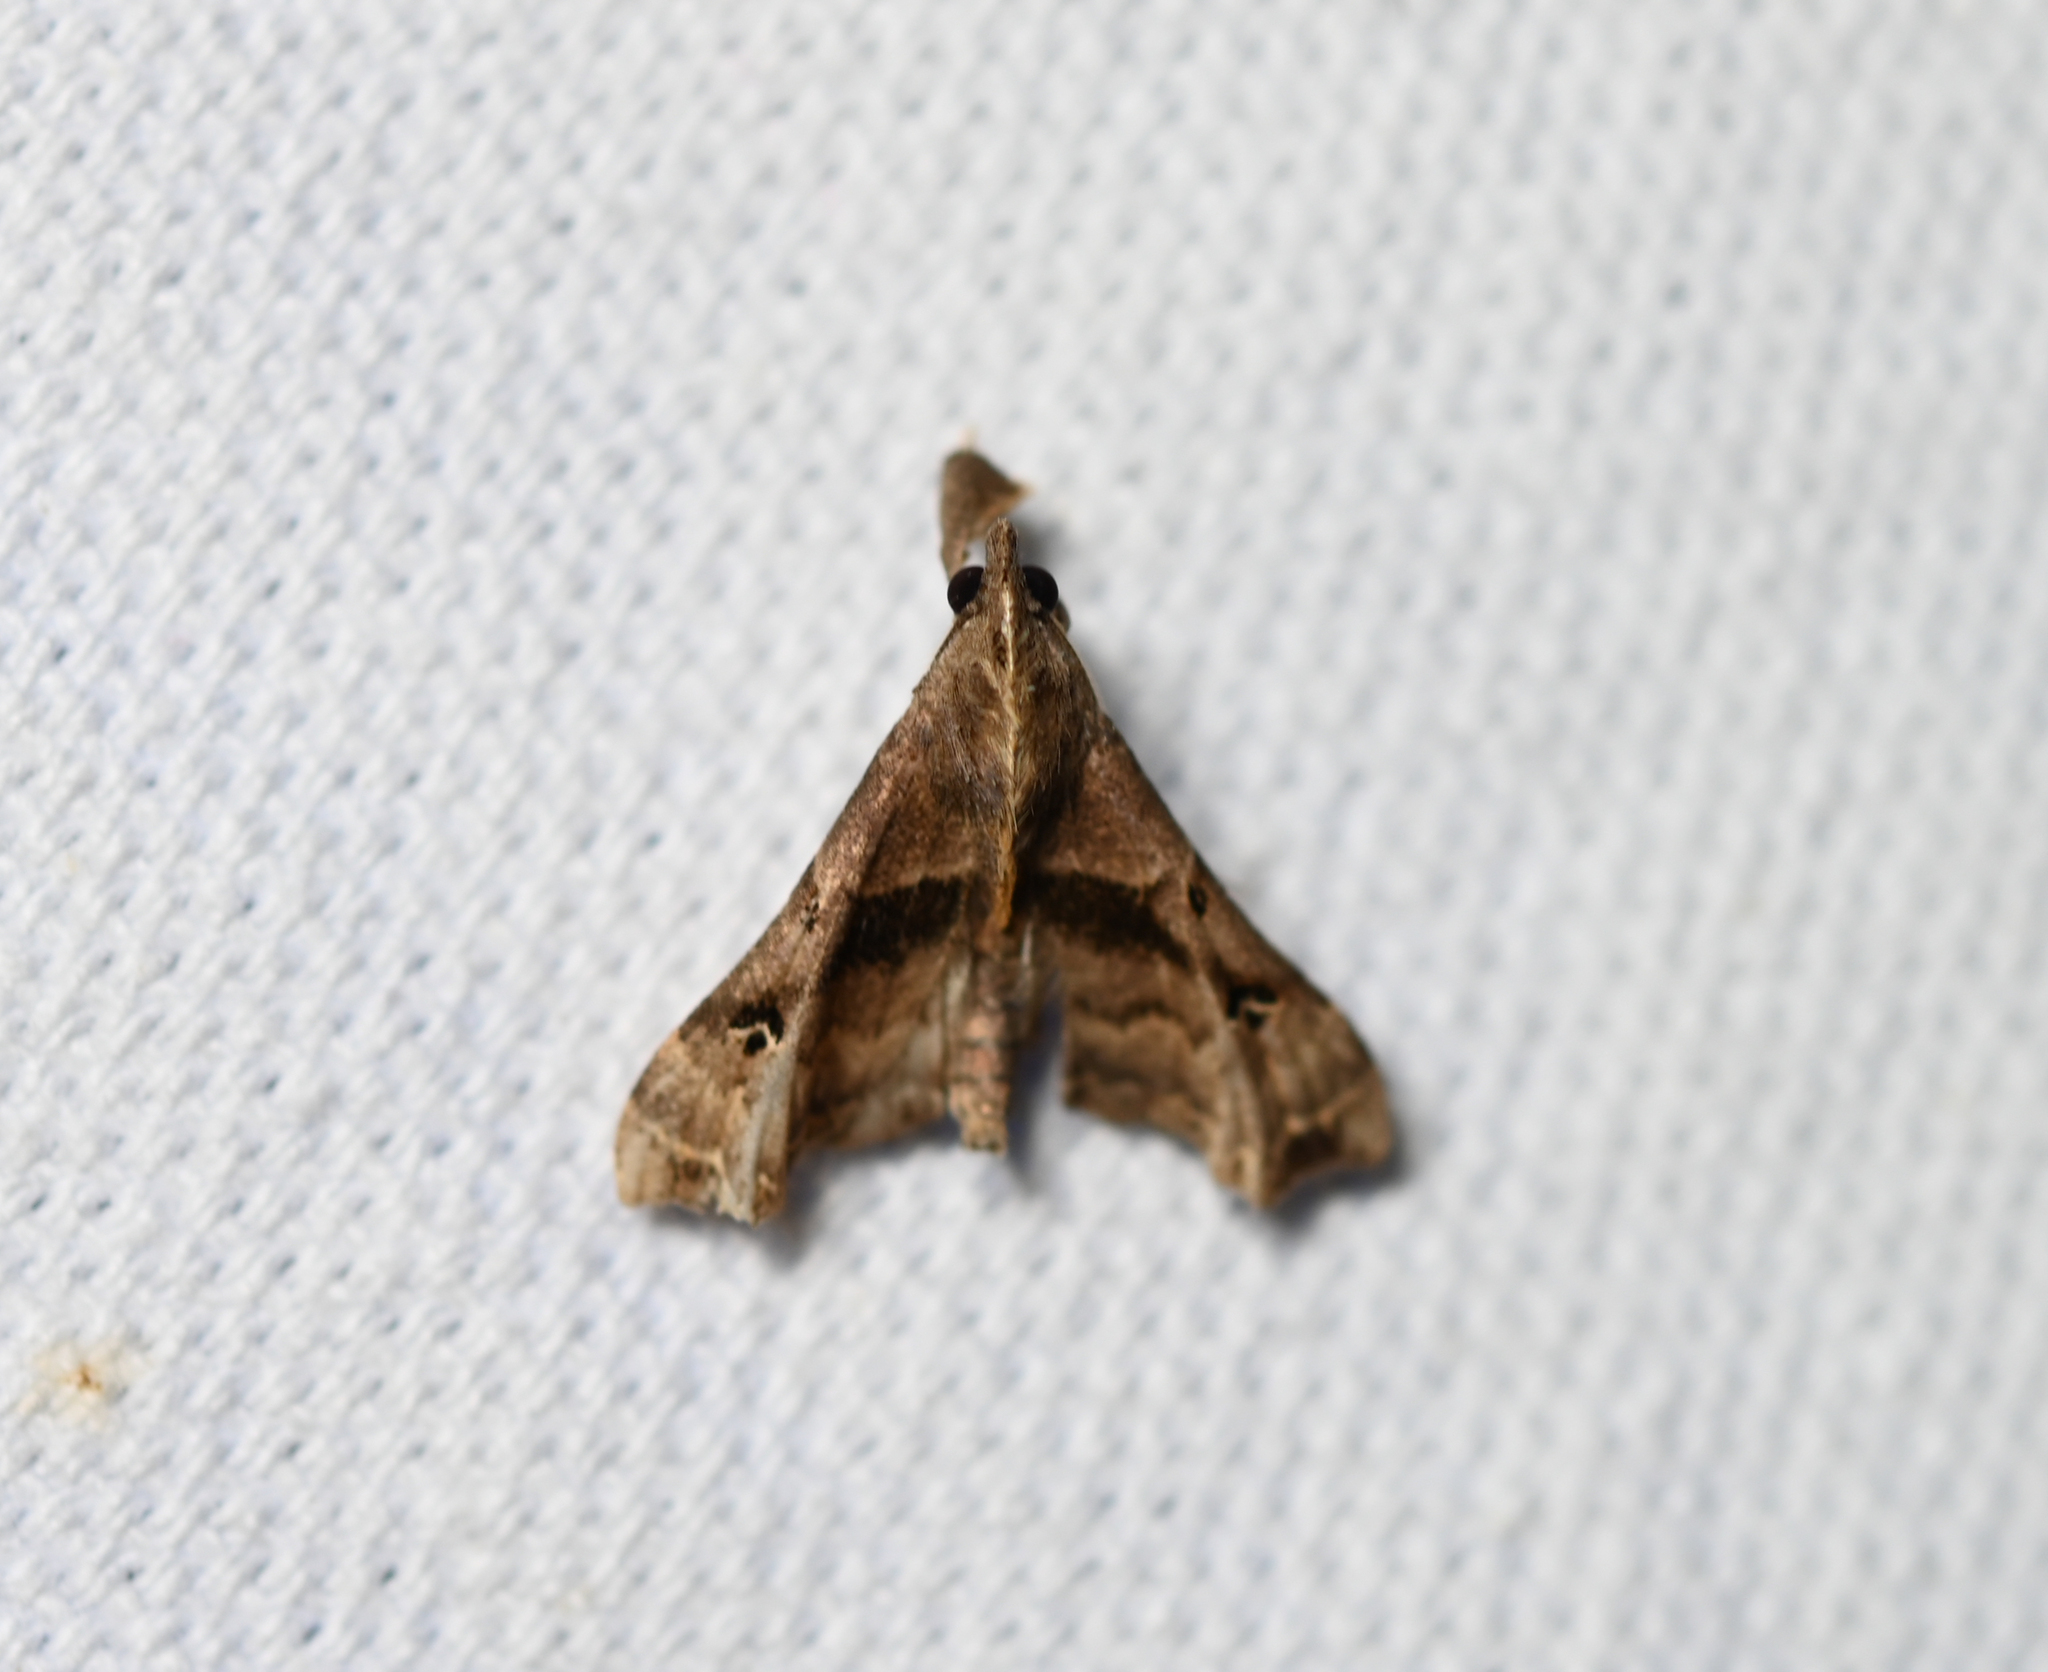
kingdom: Animalia
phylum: Arthropoda
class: Insecta
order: Lepidoptera
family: Erebidae
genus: Palthis
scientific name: Palthis asopialis
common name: Faint-spotted palthis moth
